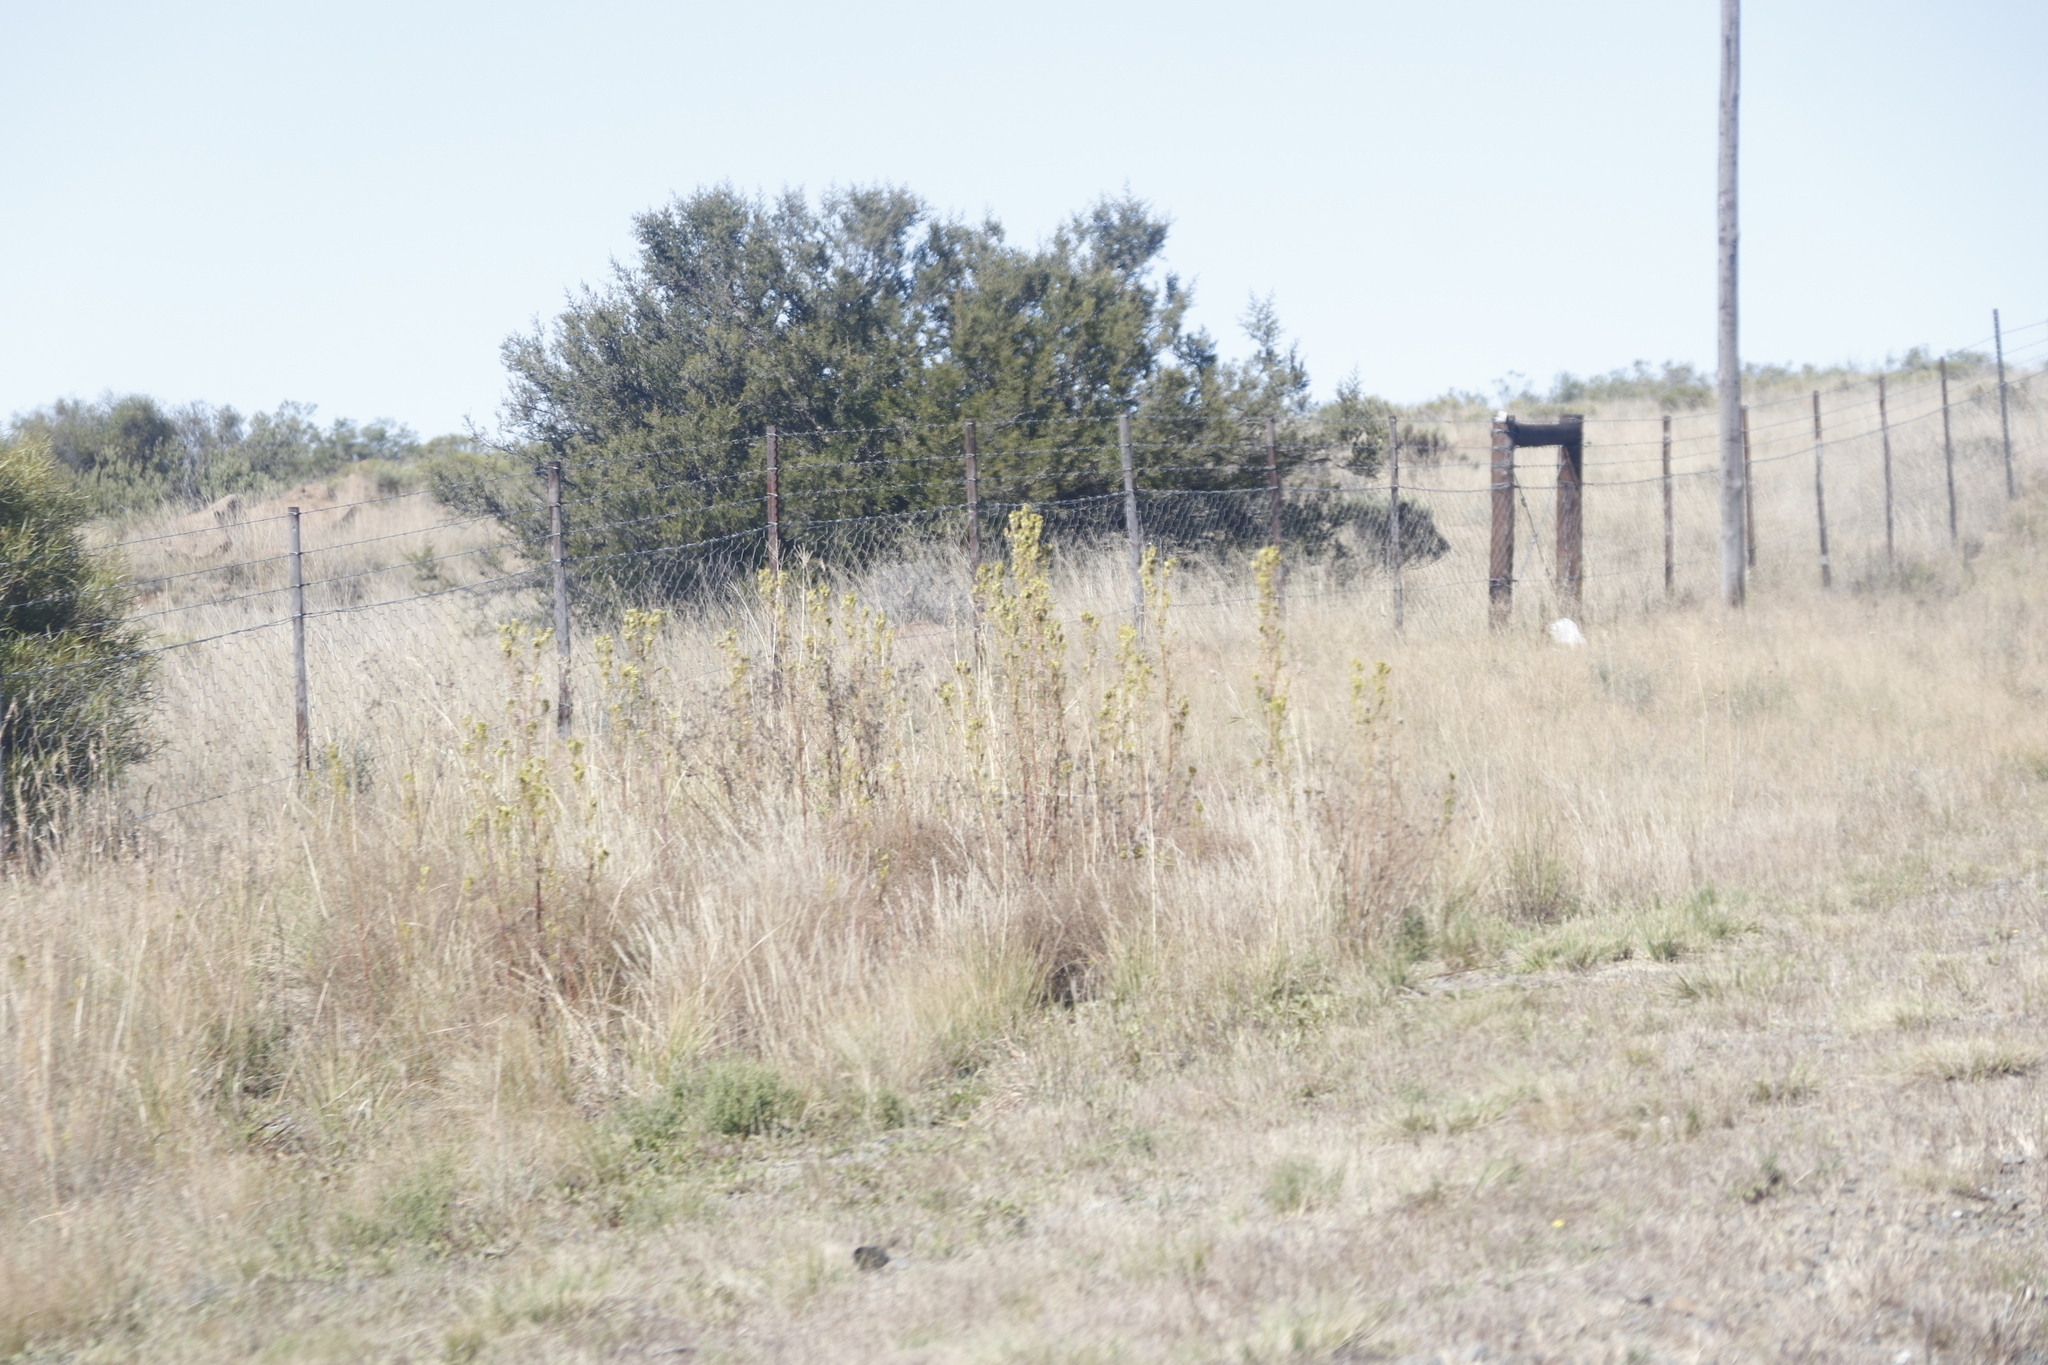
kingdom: Plantae
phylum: Tracheophyta
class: Magnoliopsida
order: Asterales
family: Asteraceae
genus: Tagetes
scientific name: Tagetes minuta
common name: Muster john henry
